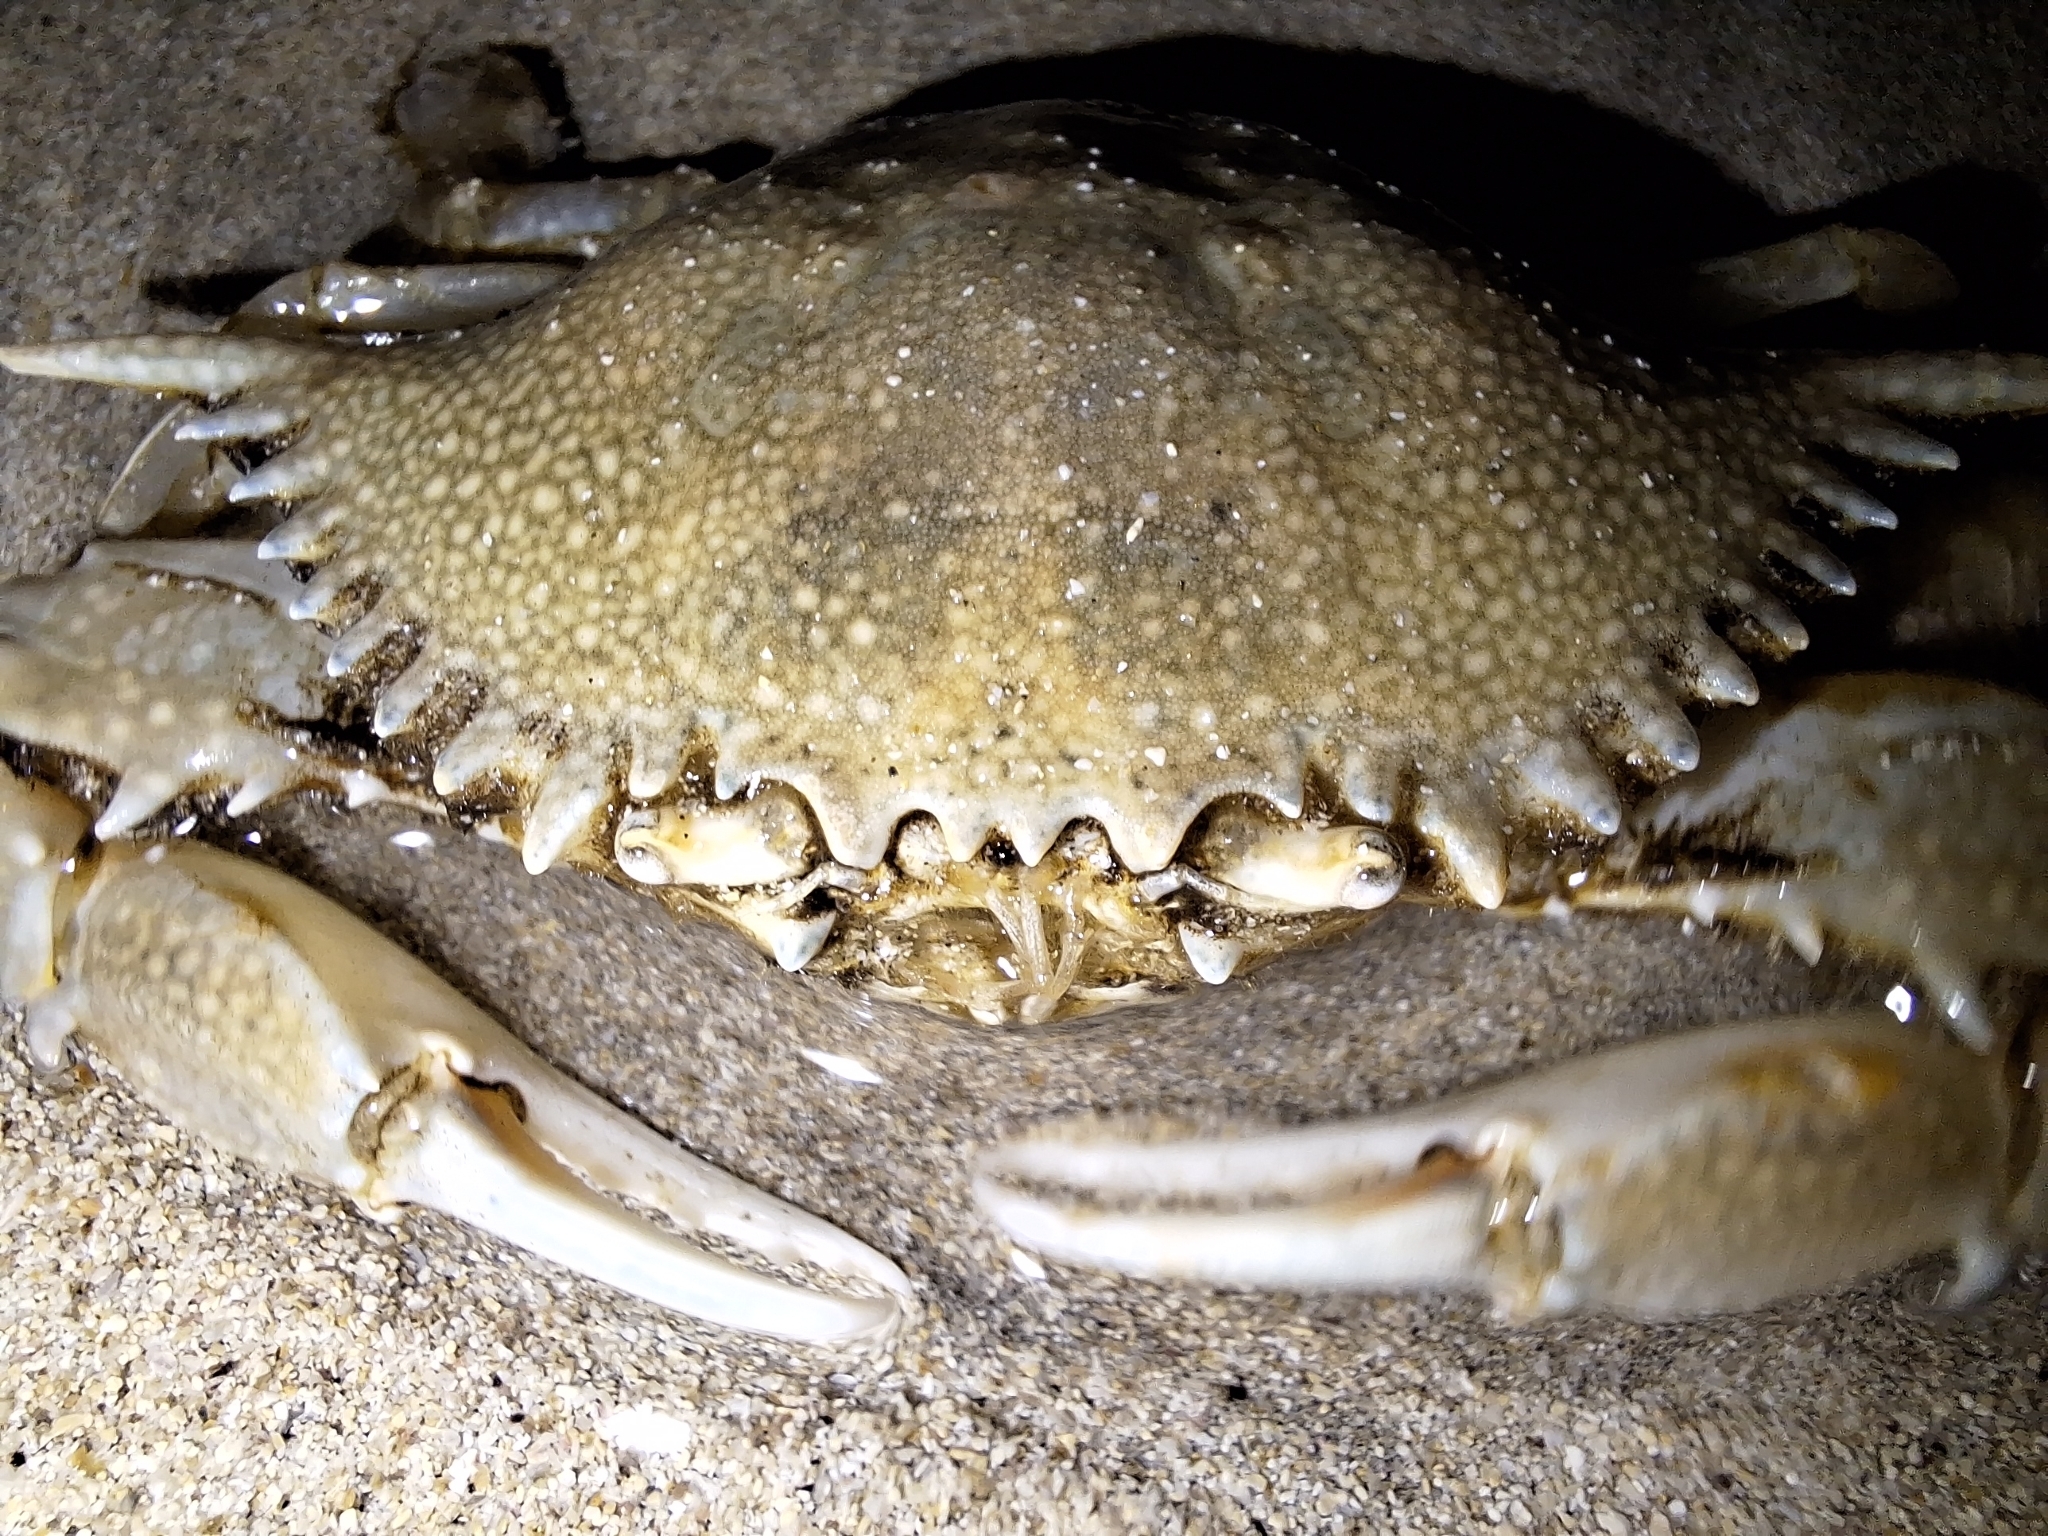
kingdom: Animalia
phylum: Arthropoda
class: Malacostraca
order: Decapoda
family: Portunidae
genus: Arenaeus
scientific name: Arenaeus mexicanus
